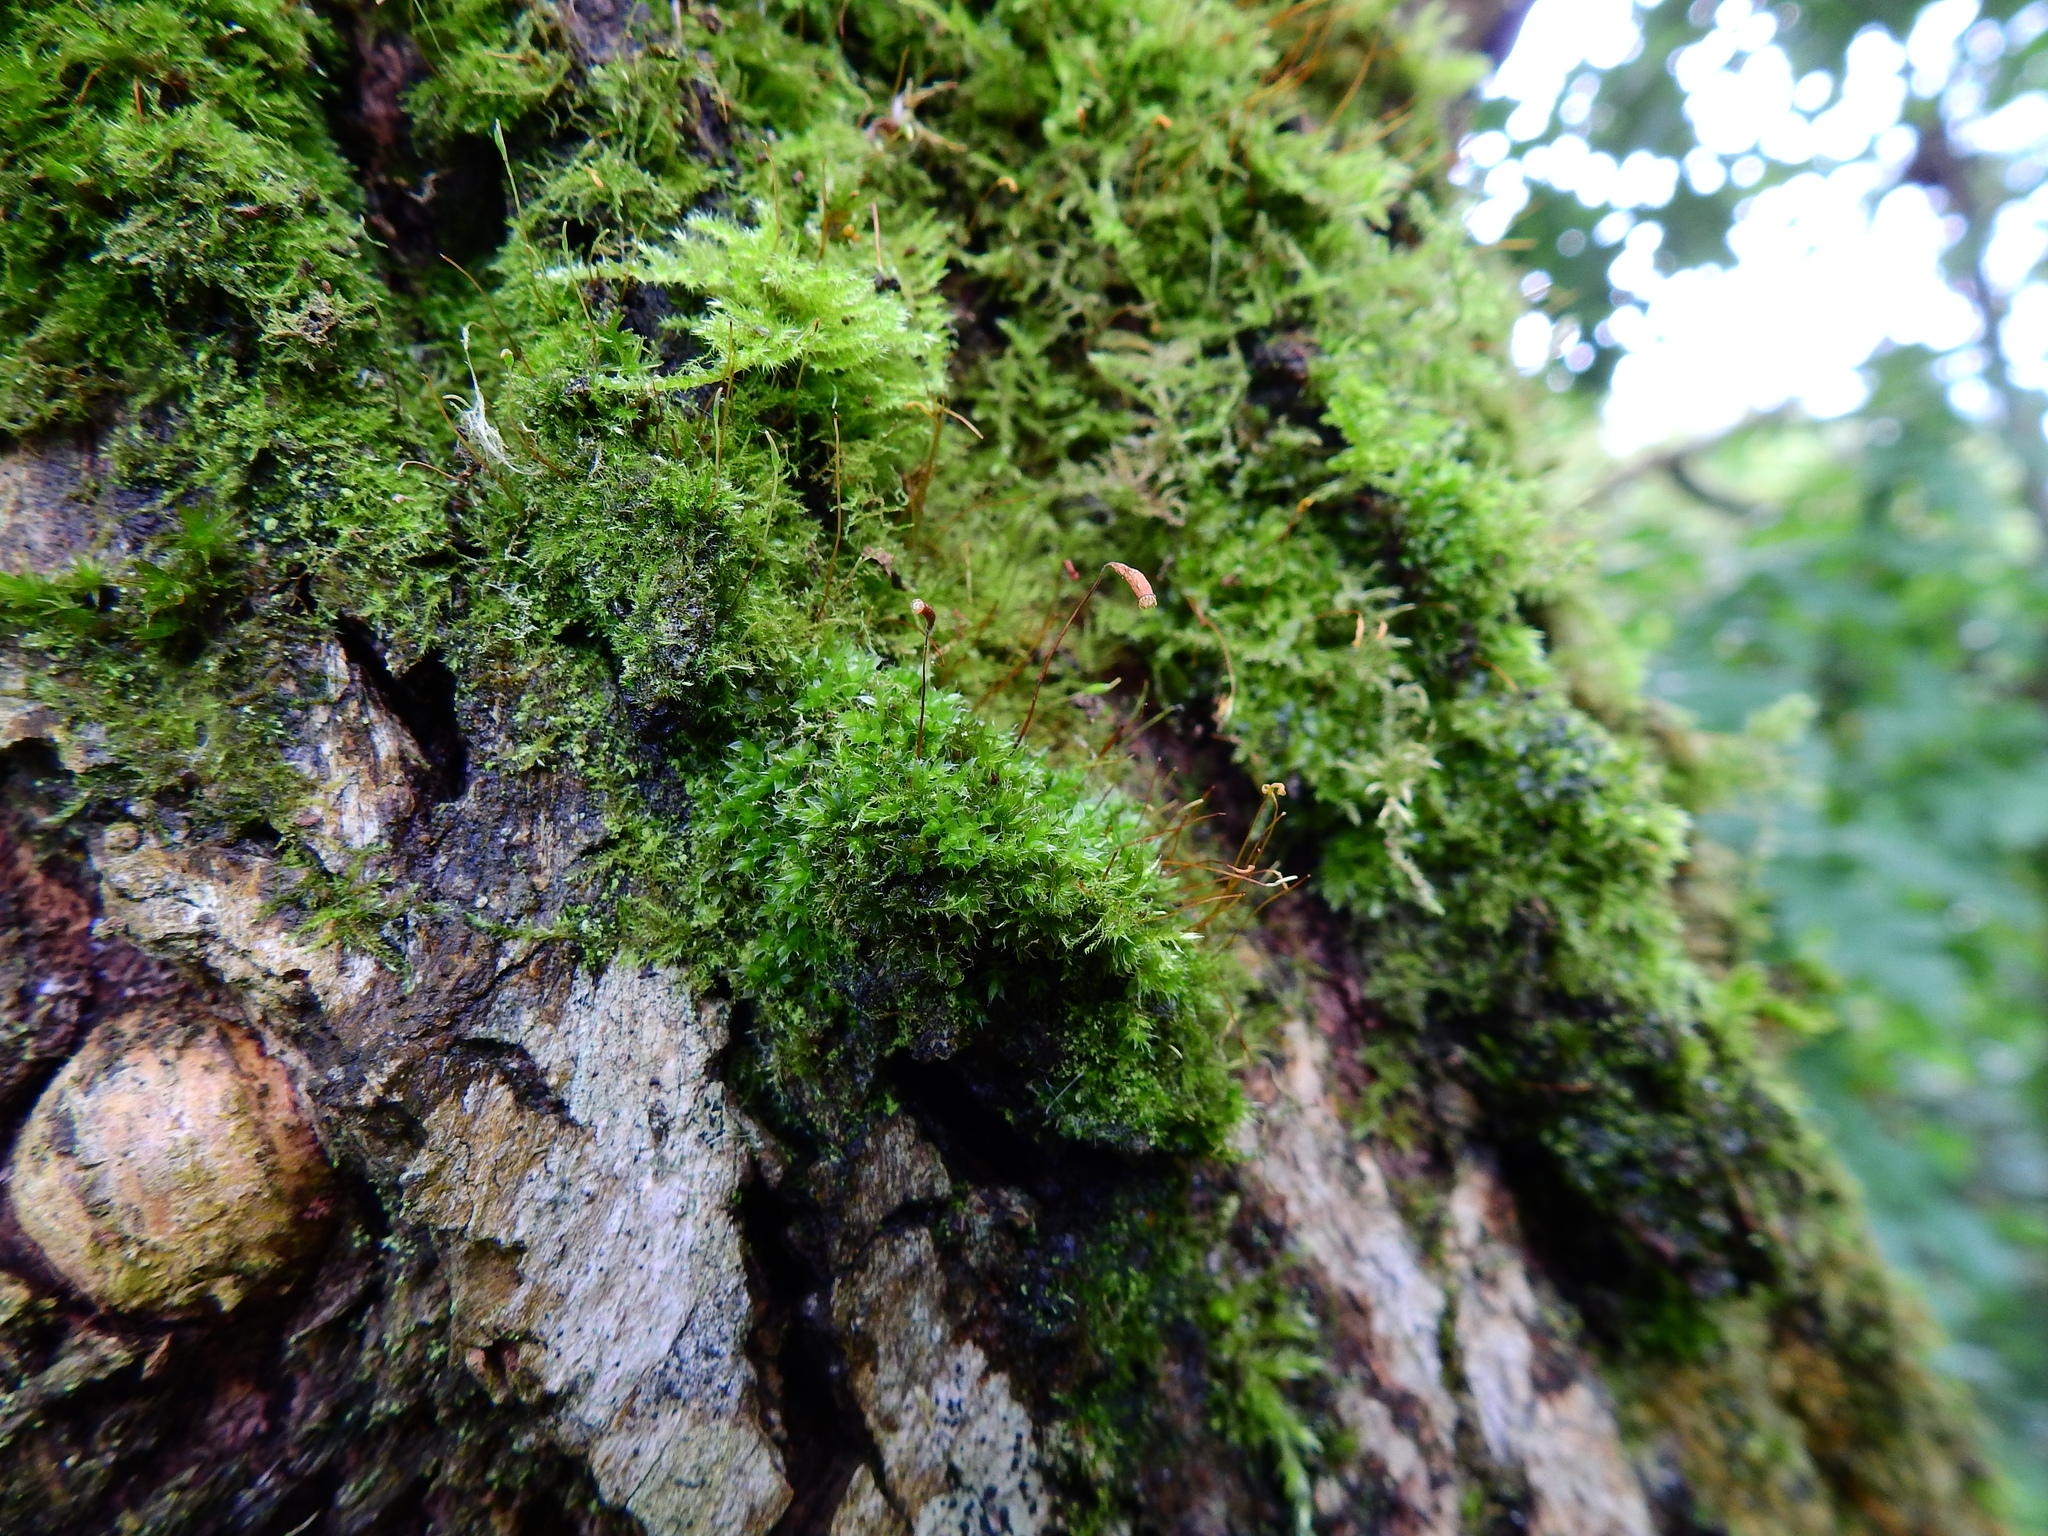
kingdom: Plantae
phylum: Bryophyta
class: Bryopsida
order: Bryales
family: Bryaceae
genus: Rosulabryum
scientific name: Rosulabryum capillare
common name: Capillary thread-moss
